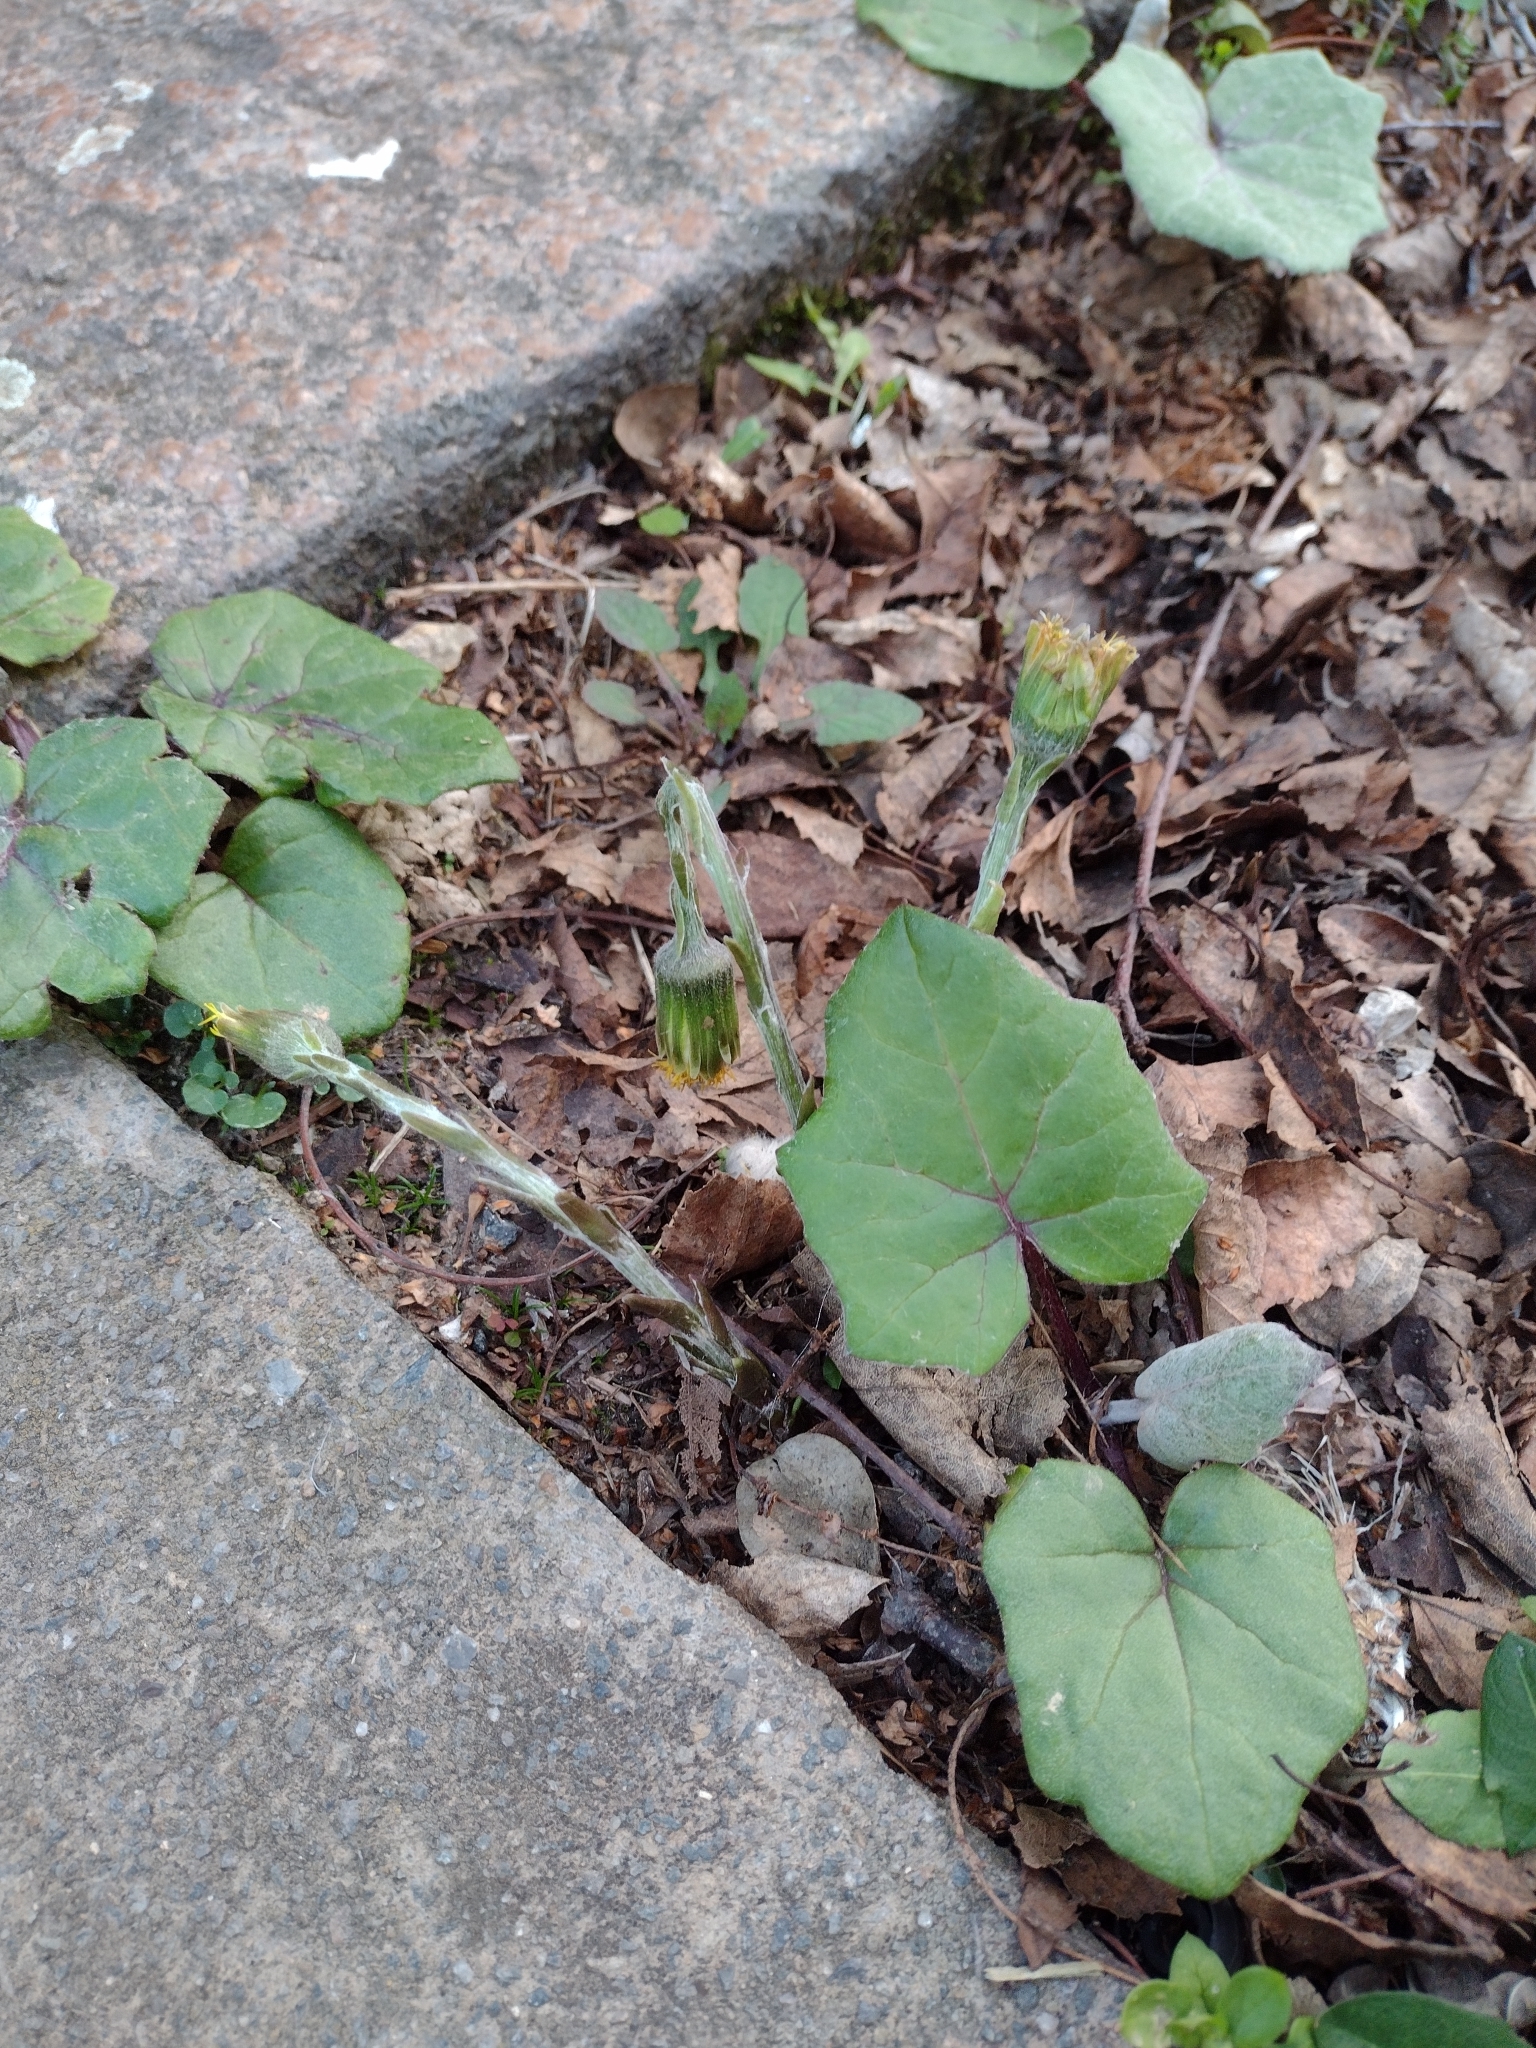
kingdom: Plantae
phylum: Tracheophyta
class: Magnoliopsida
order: Asterales
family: Asteraceae
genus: Tussilago
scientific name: Tussilago farfara
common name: Coltsfoot
